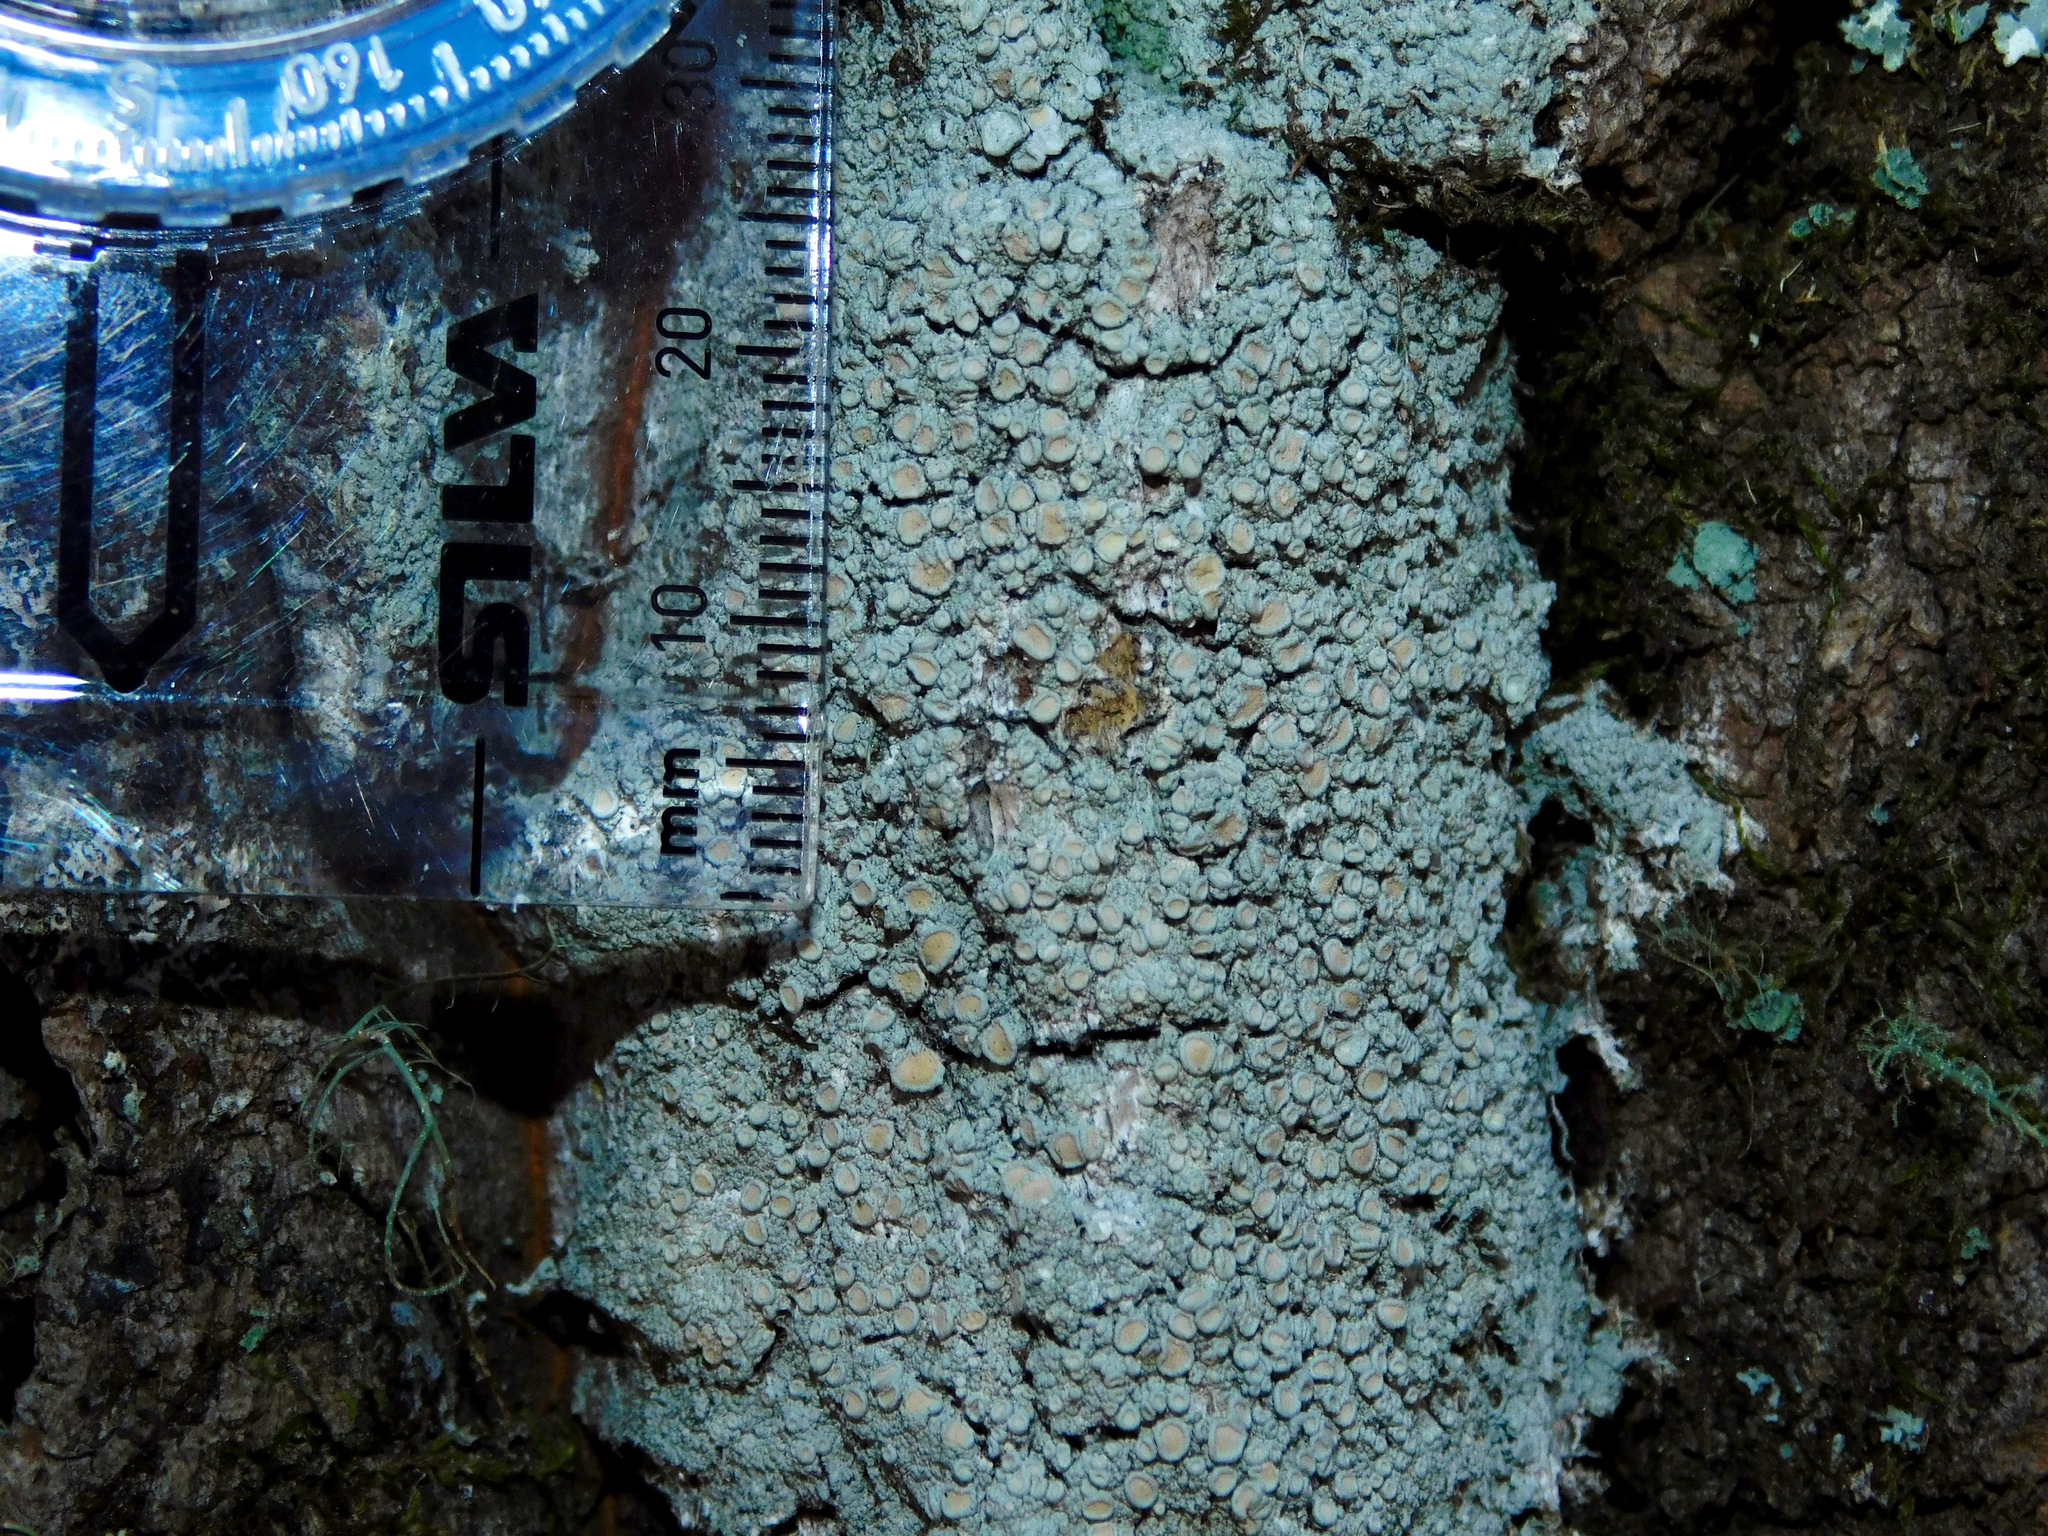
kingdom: Fungi
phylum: Ascomycota
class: Lecanoromycetes
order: Lecanorales
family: Lecanoraceae
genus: Lecanora
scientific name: Lecanora masana
